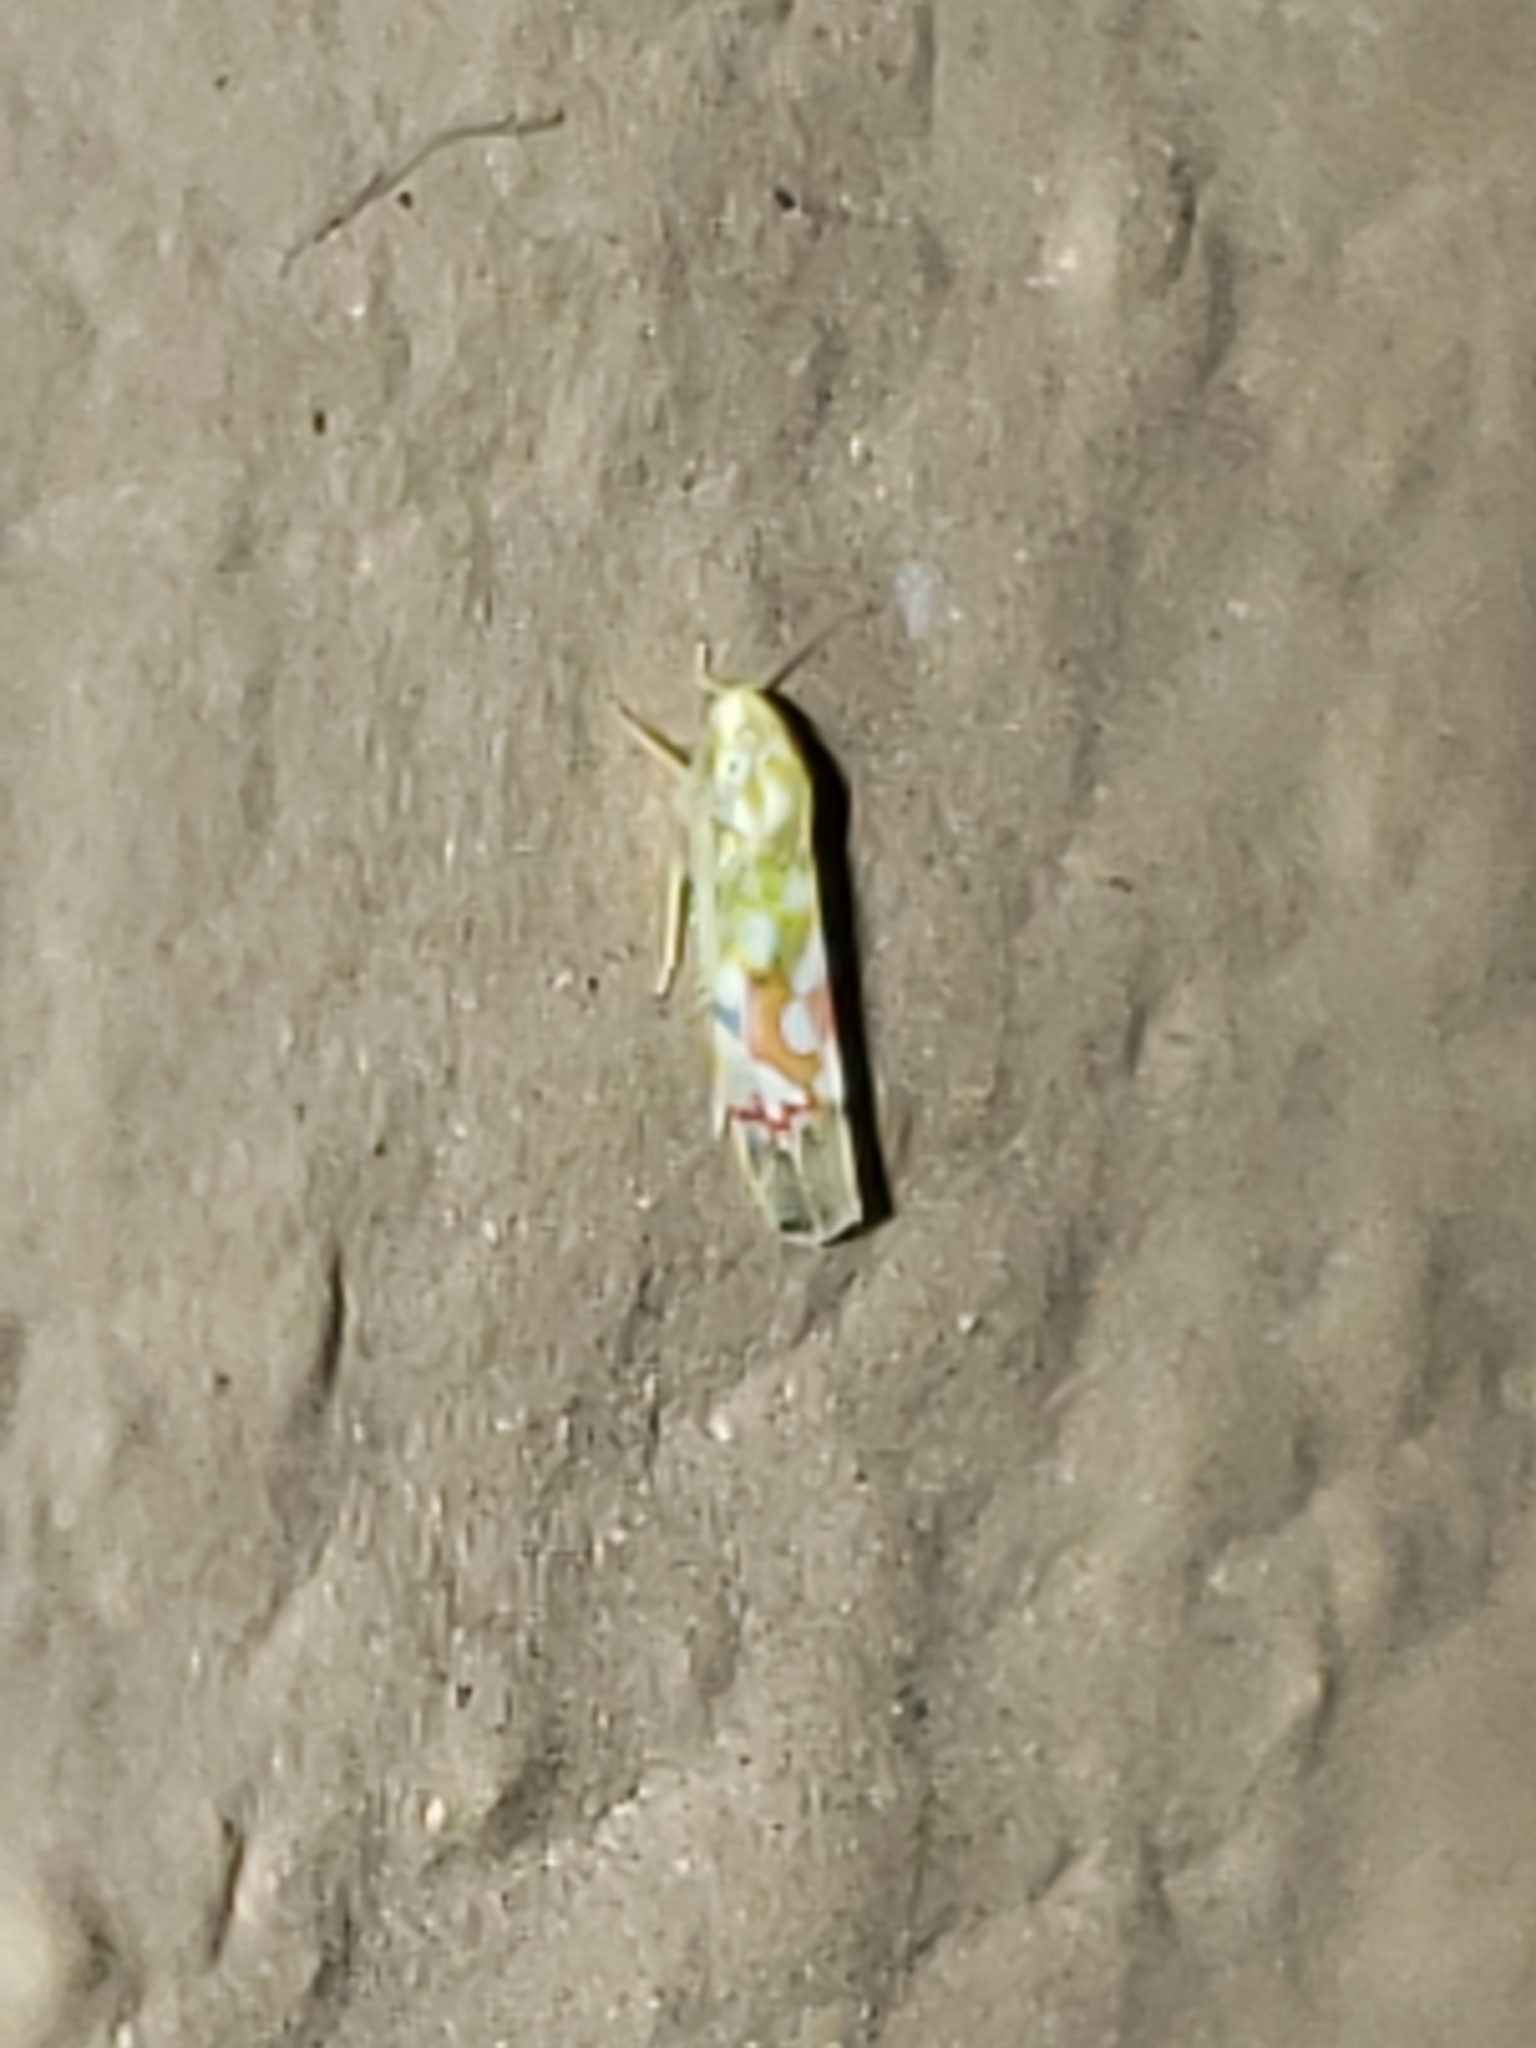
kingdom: Animalia
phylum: Arthropoda
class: Insecta
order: Hemiptera
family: Cicadellidae
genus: Erythroneura
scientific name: Erythroneura reflecta
